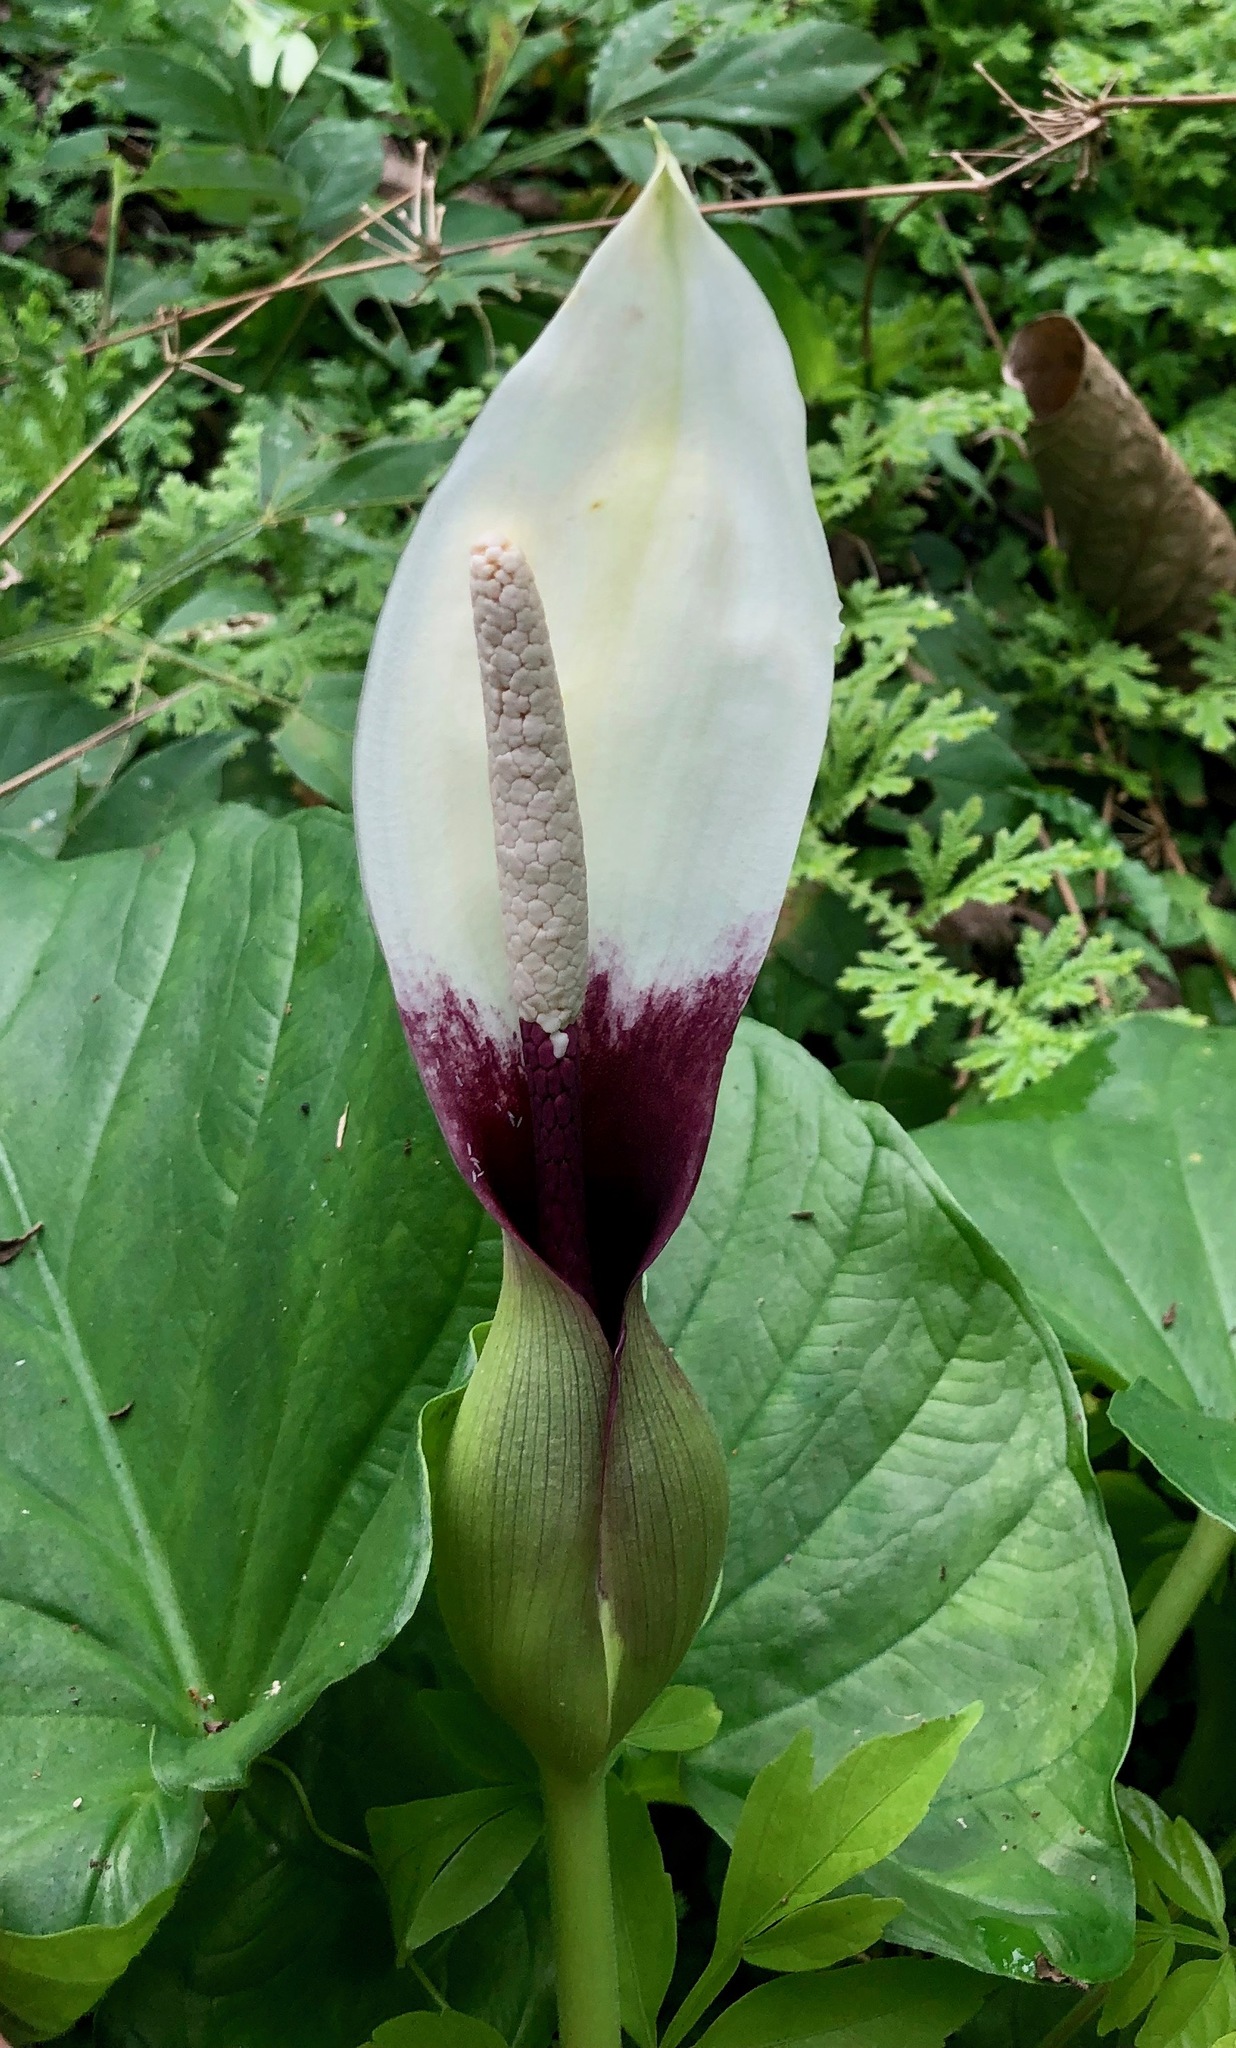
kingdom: Plantae
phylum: Tracheophyta
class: Liliopsida
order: Alismatales
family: Araceae
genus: Xanthosoma
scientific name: Xanthosoma mexicanum
